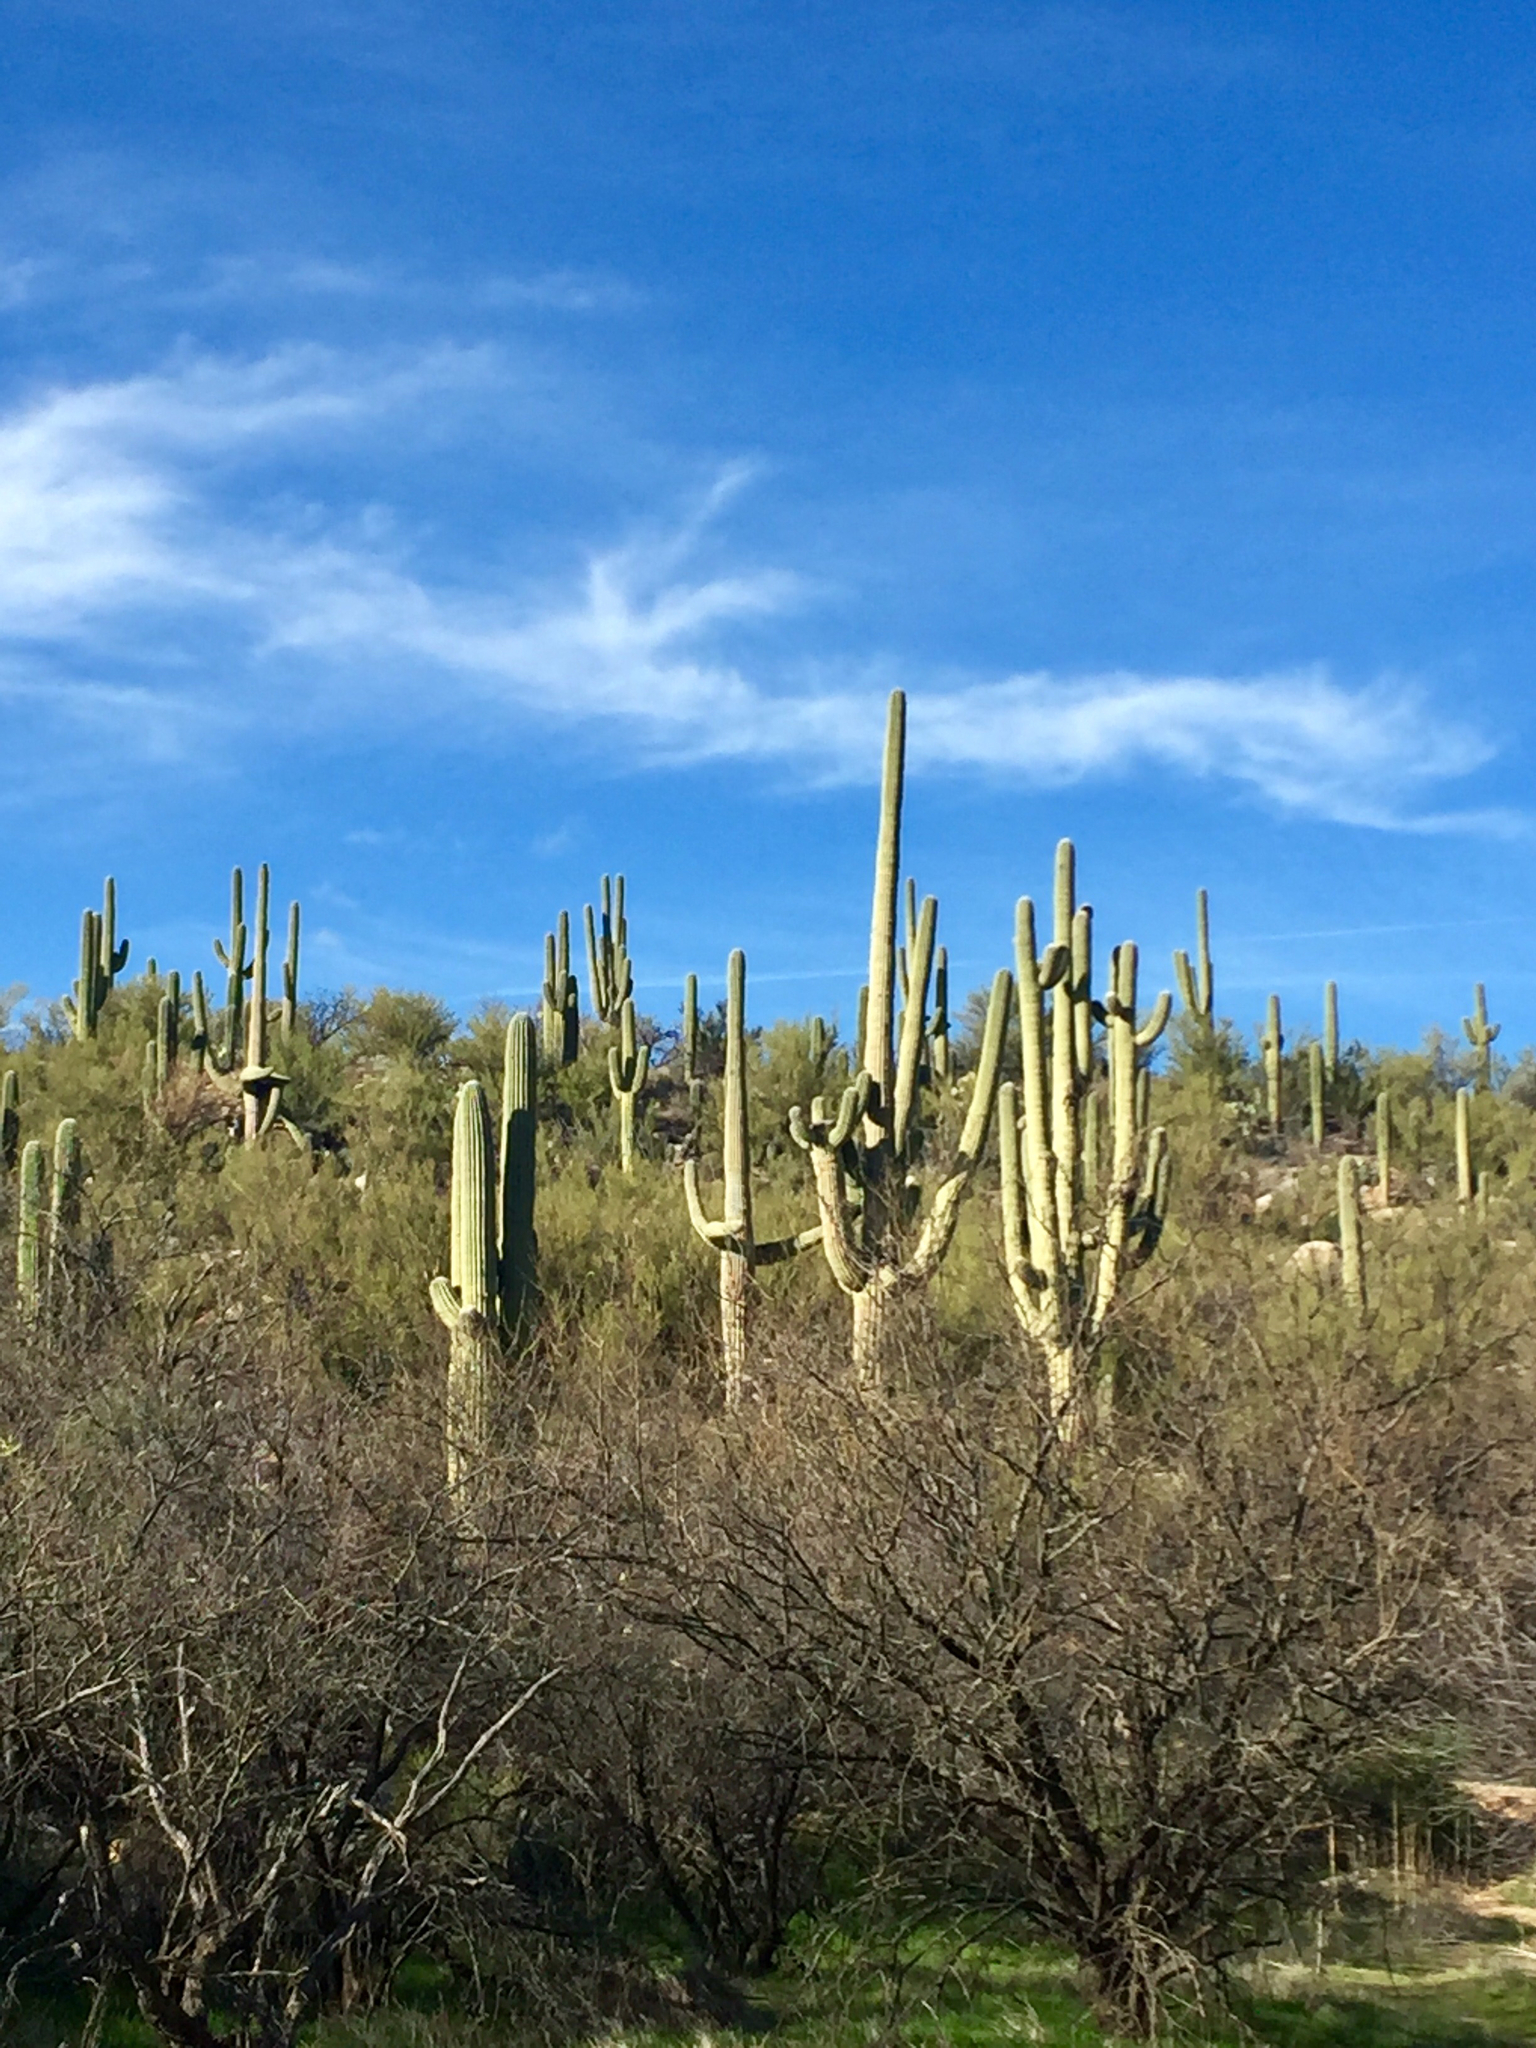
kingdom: Plantae
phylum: Tracheophyta
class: Magnoliopsida
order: Caryophyllales
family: Cactaceae
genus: Carnegiea
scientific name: Carnegiea gigantea
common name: Saguaro
